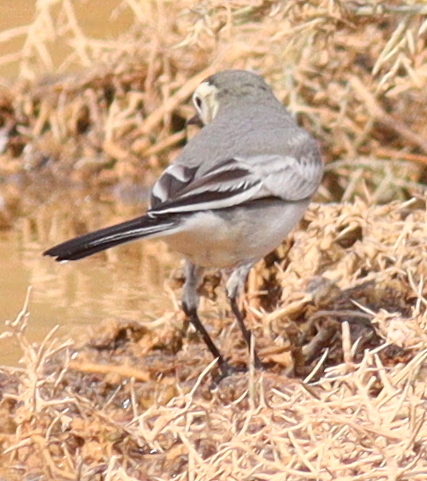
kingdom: Animalia
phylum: Chordata
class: Aves
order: Passeriformes
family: Motacillidae
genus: Motacilla
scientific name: Motacilla alba
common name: White wagtail
